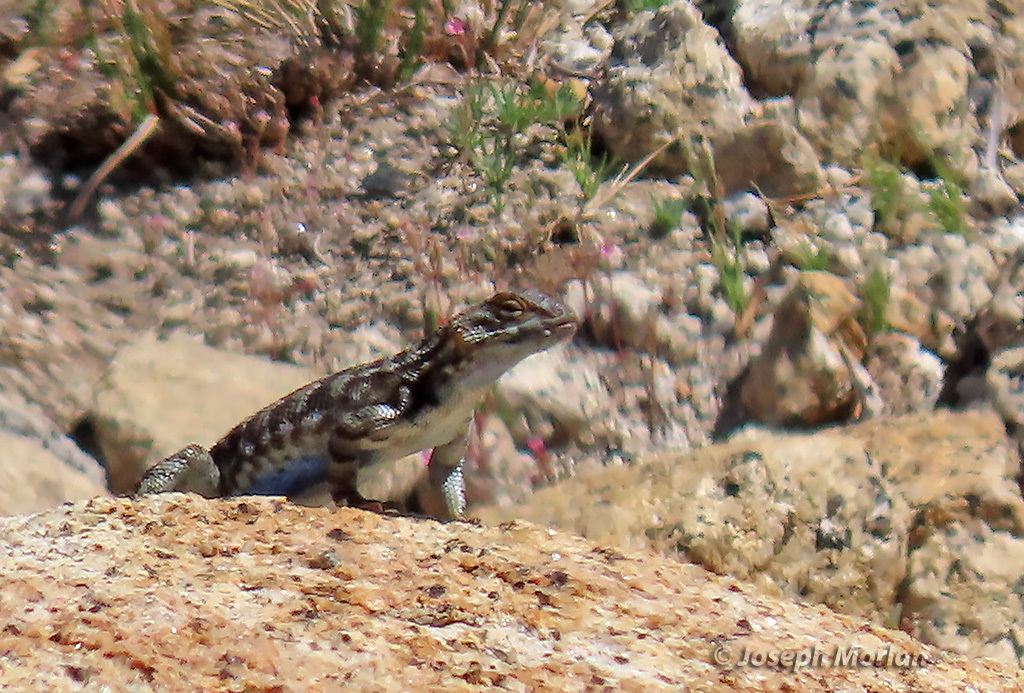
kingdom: Animalia
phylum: Chordata
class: Squamata
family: Phrynosomatidae
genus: Sceloporus
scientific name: Sceloporus graciosus
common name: Sagebrush lizard
